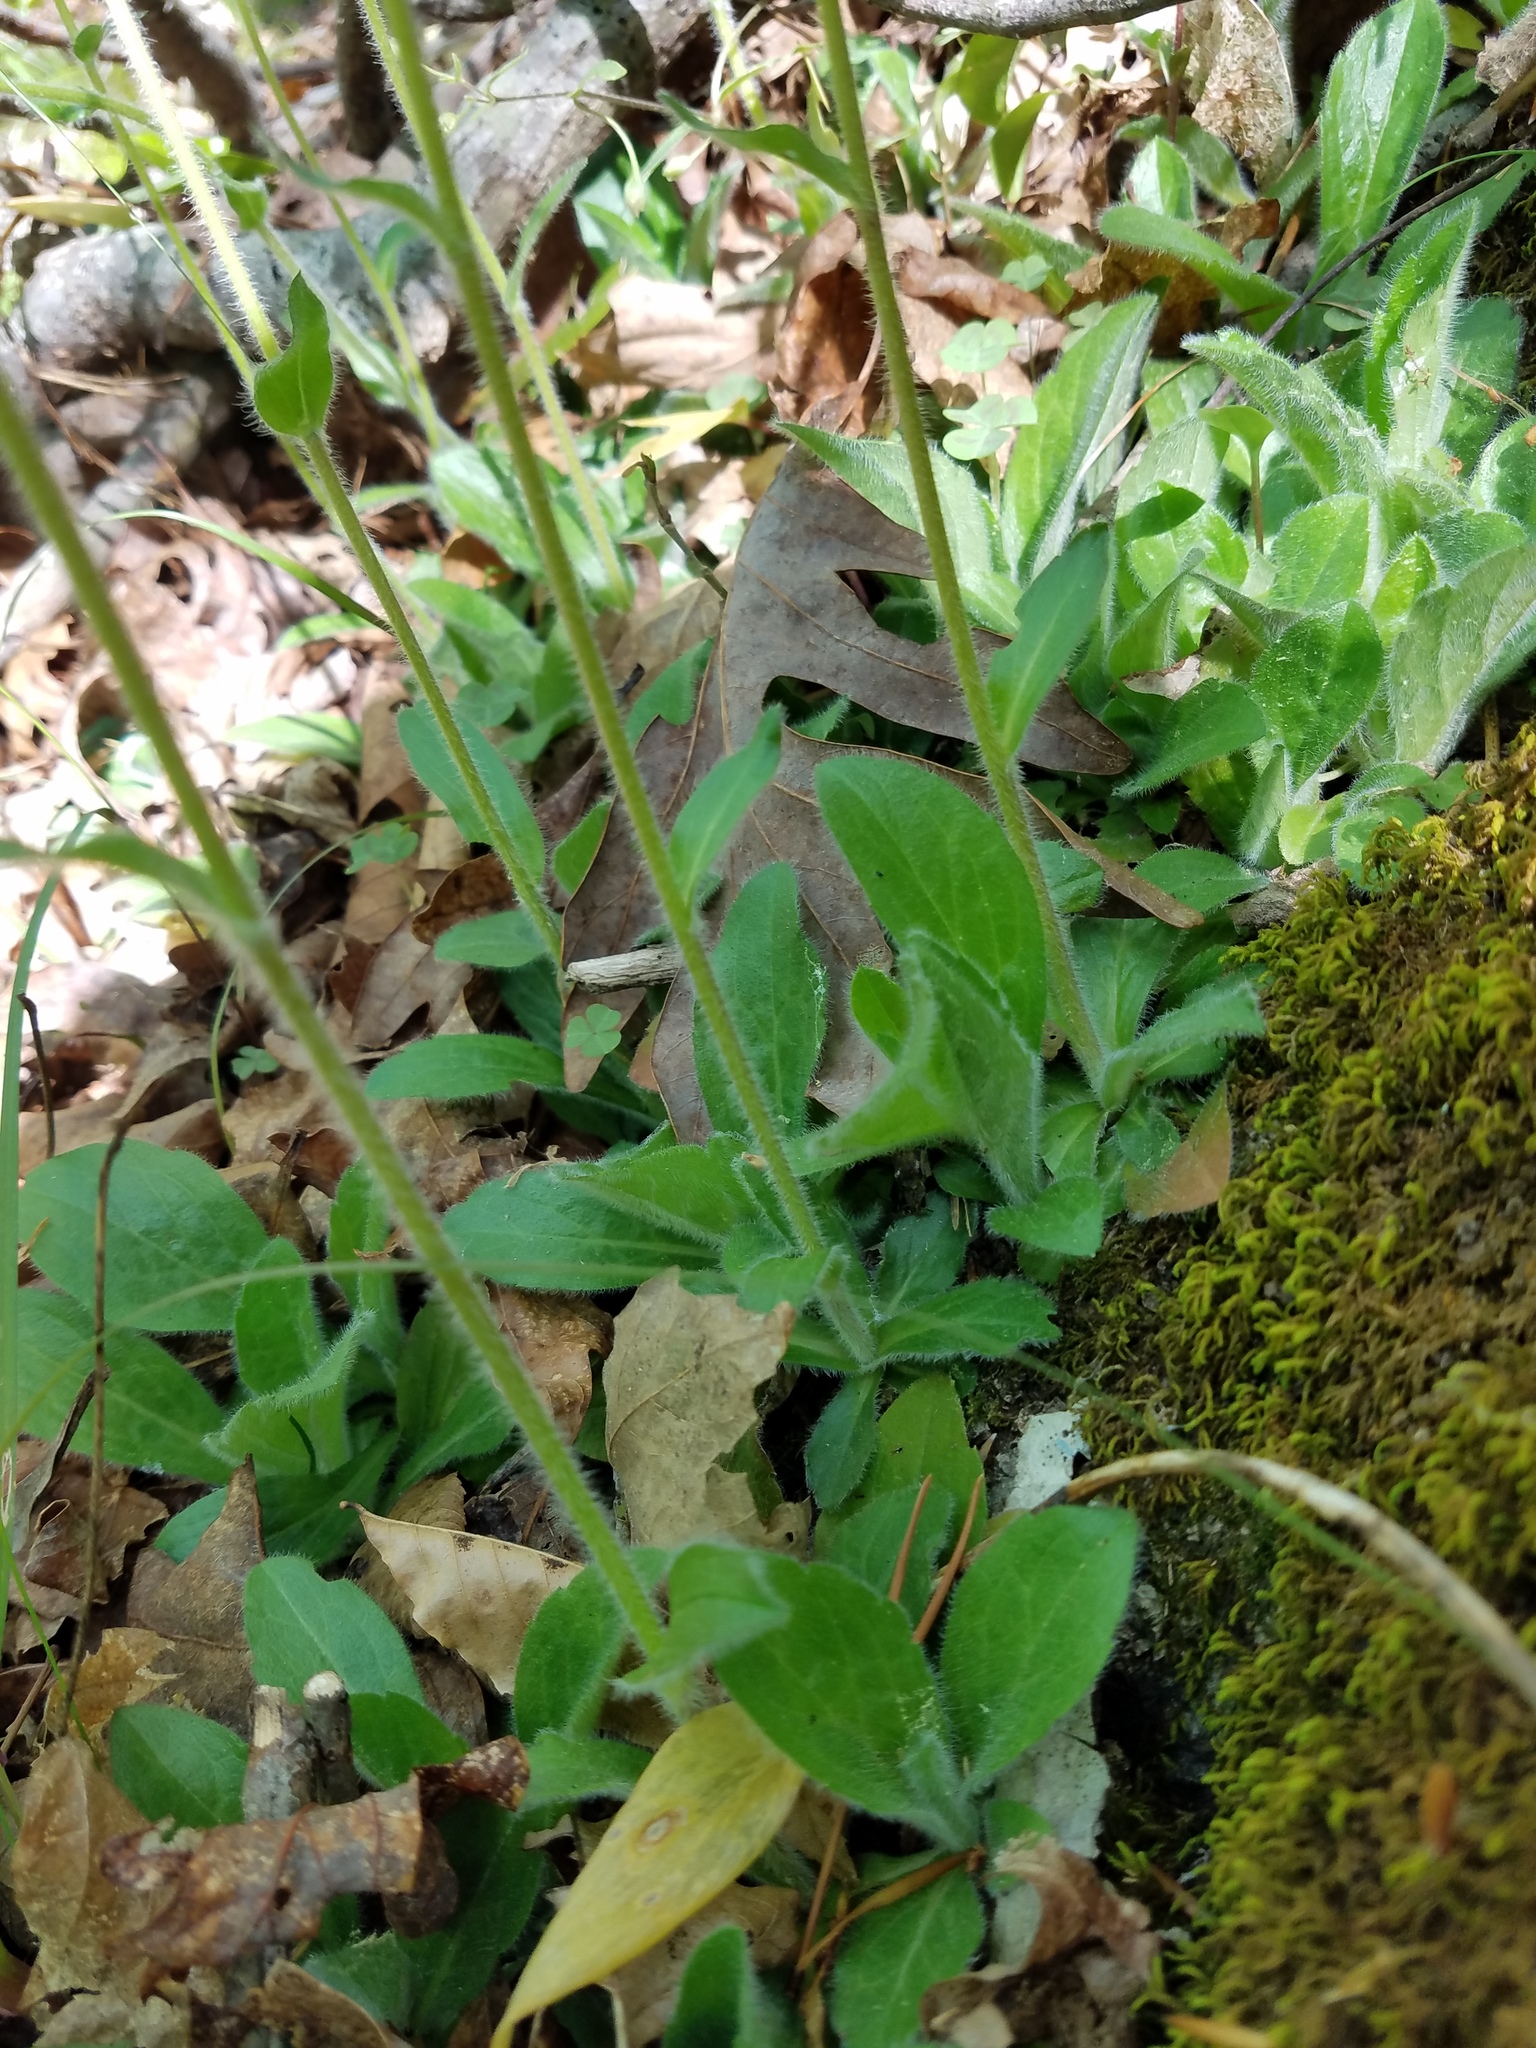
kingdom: Plantae
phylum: Tracheophyta
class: Magnoliopsida
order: Asterales
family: Asteraceae
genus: Erigeron
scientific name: Erigeron pulchellus
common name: Hairy fleabane
